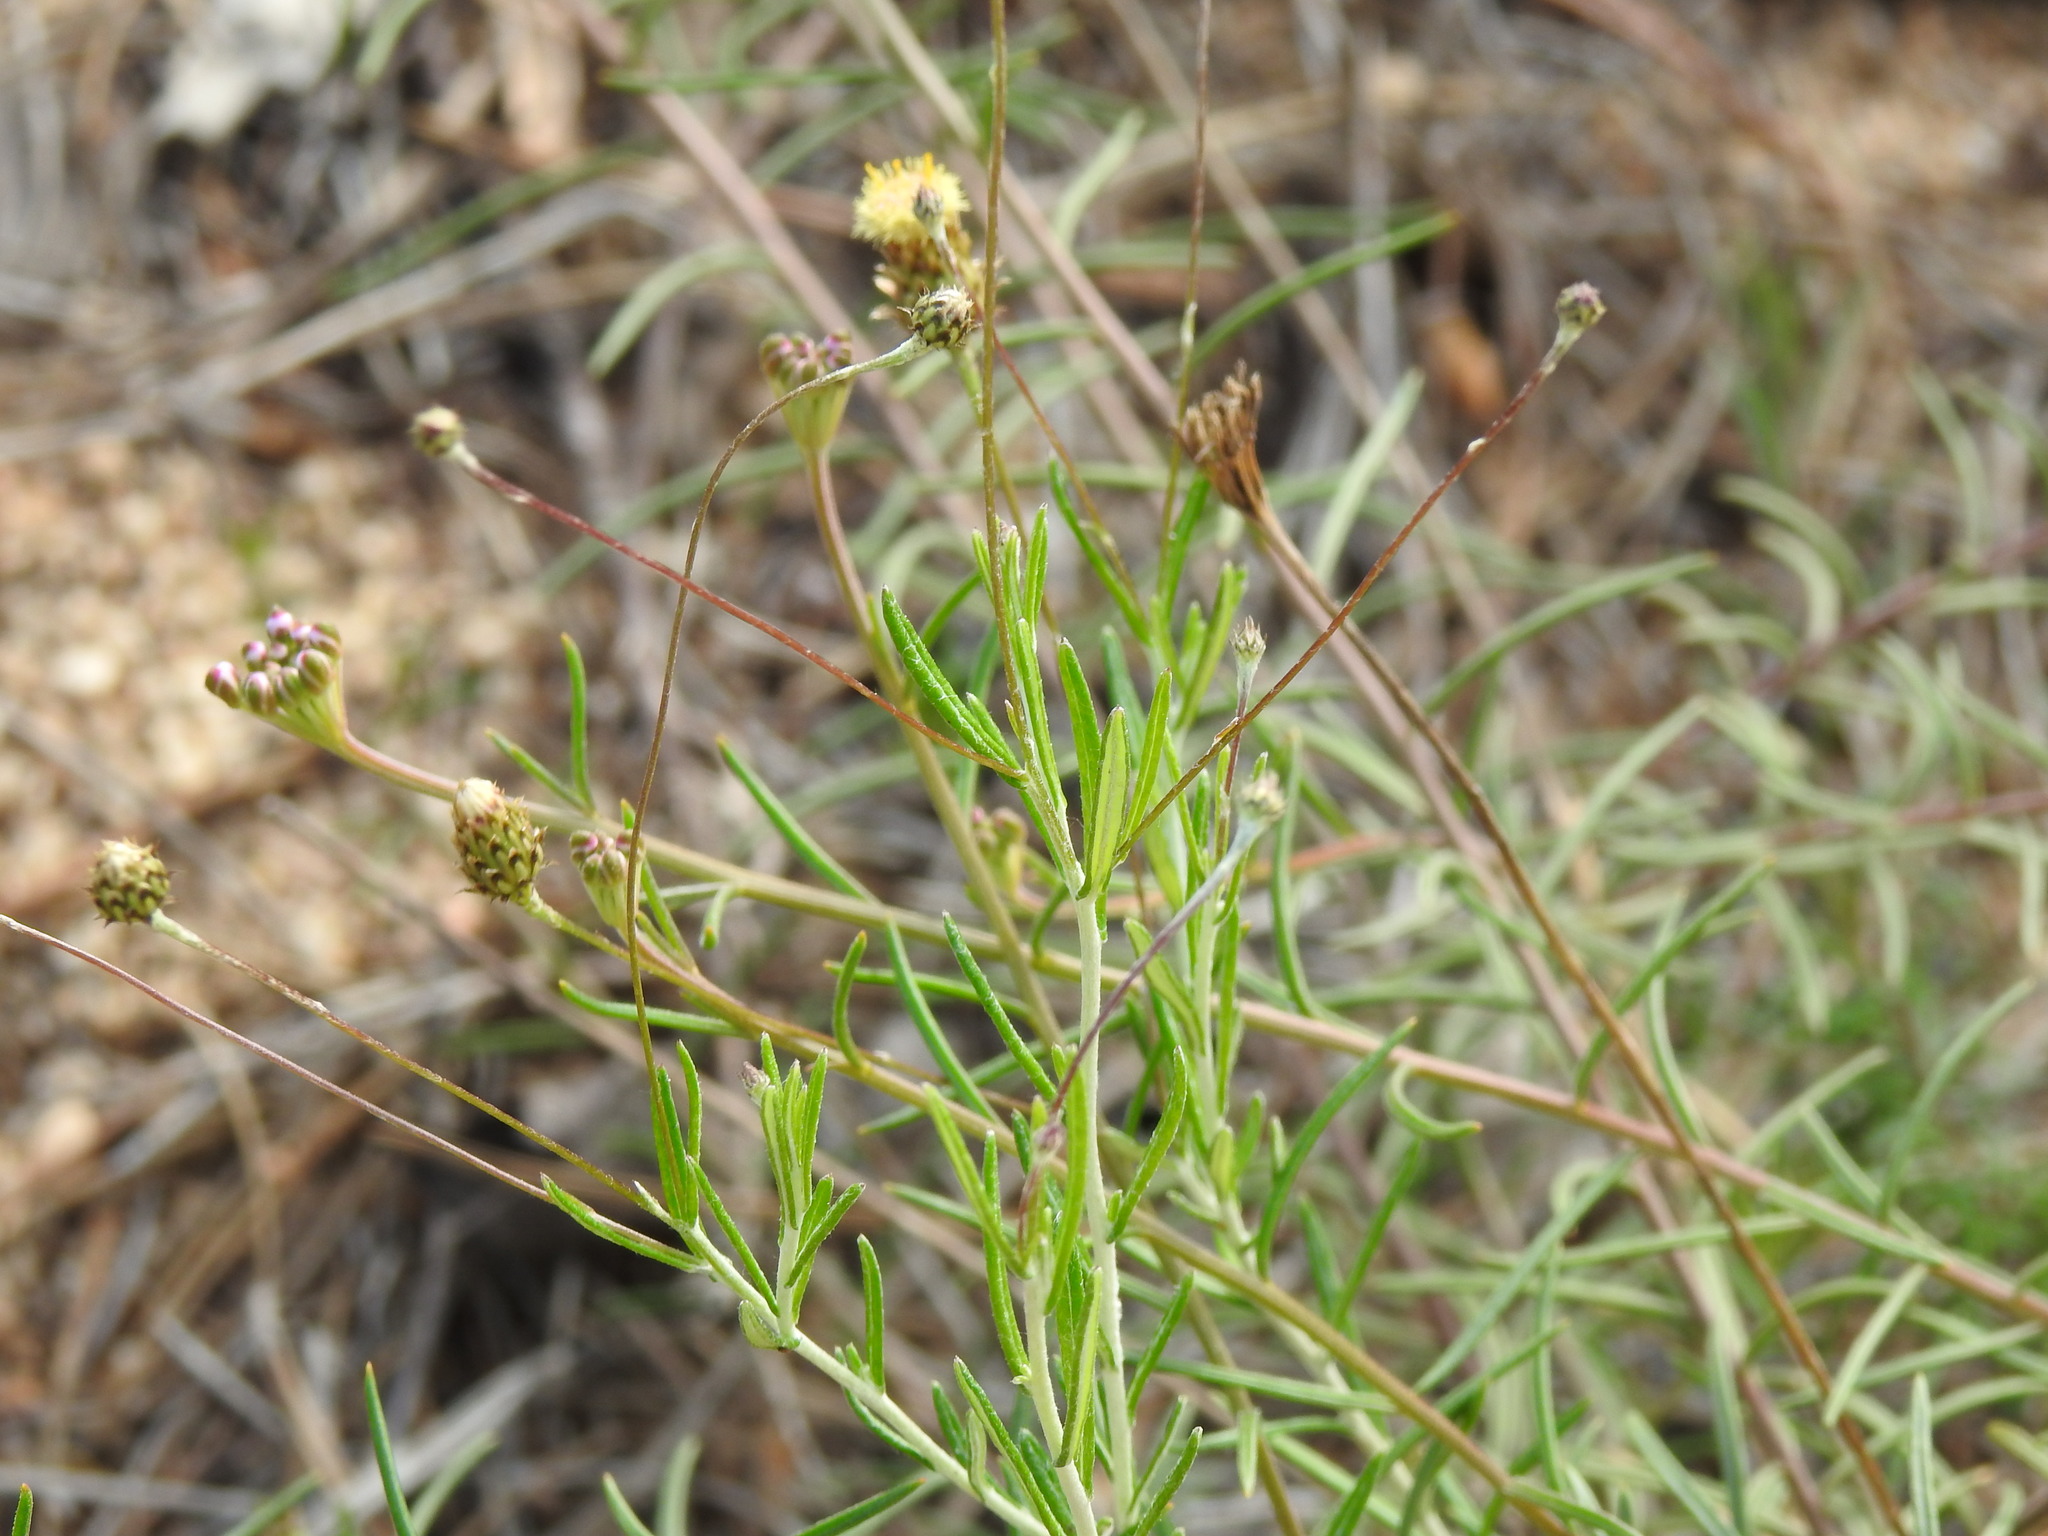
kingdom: Plantae
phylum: Tracheophyta
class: Magnoliopsida
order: Brassicales
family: Brassicaceae
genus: Iberis
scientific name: Iberis ciliata
